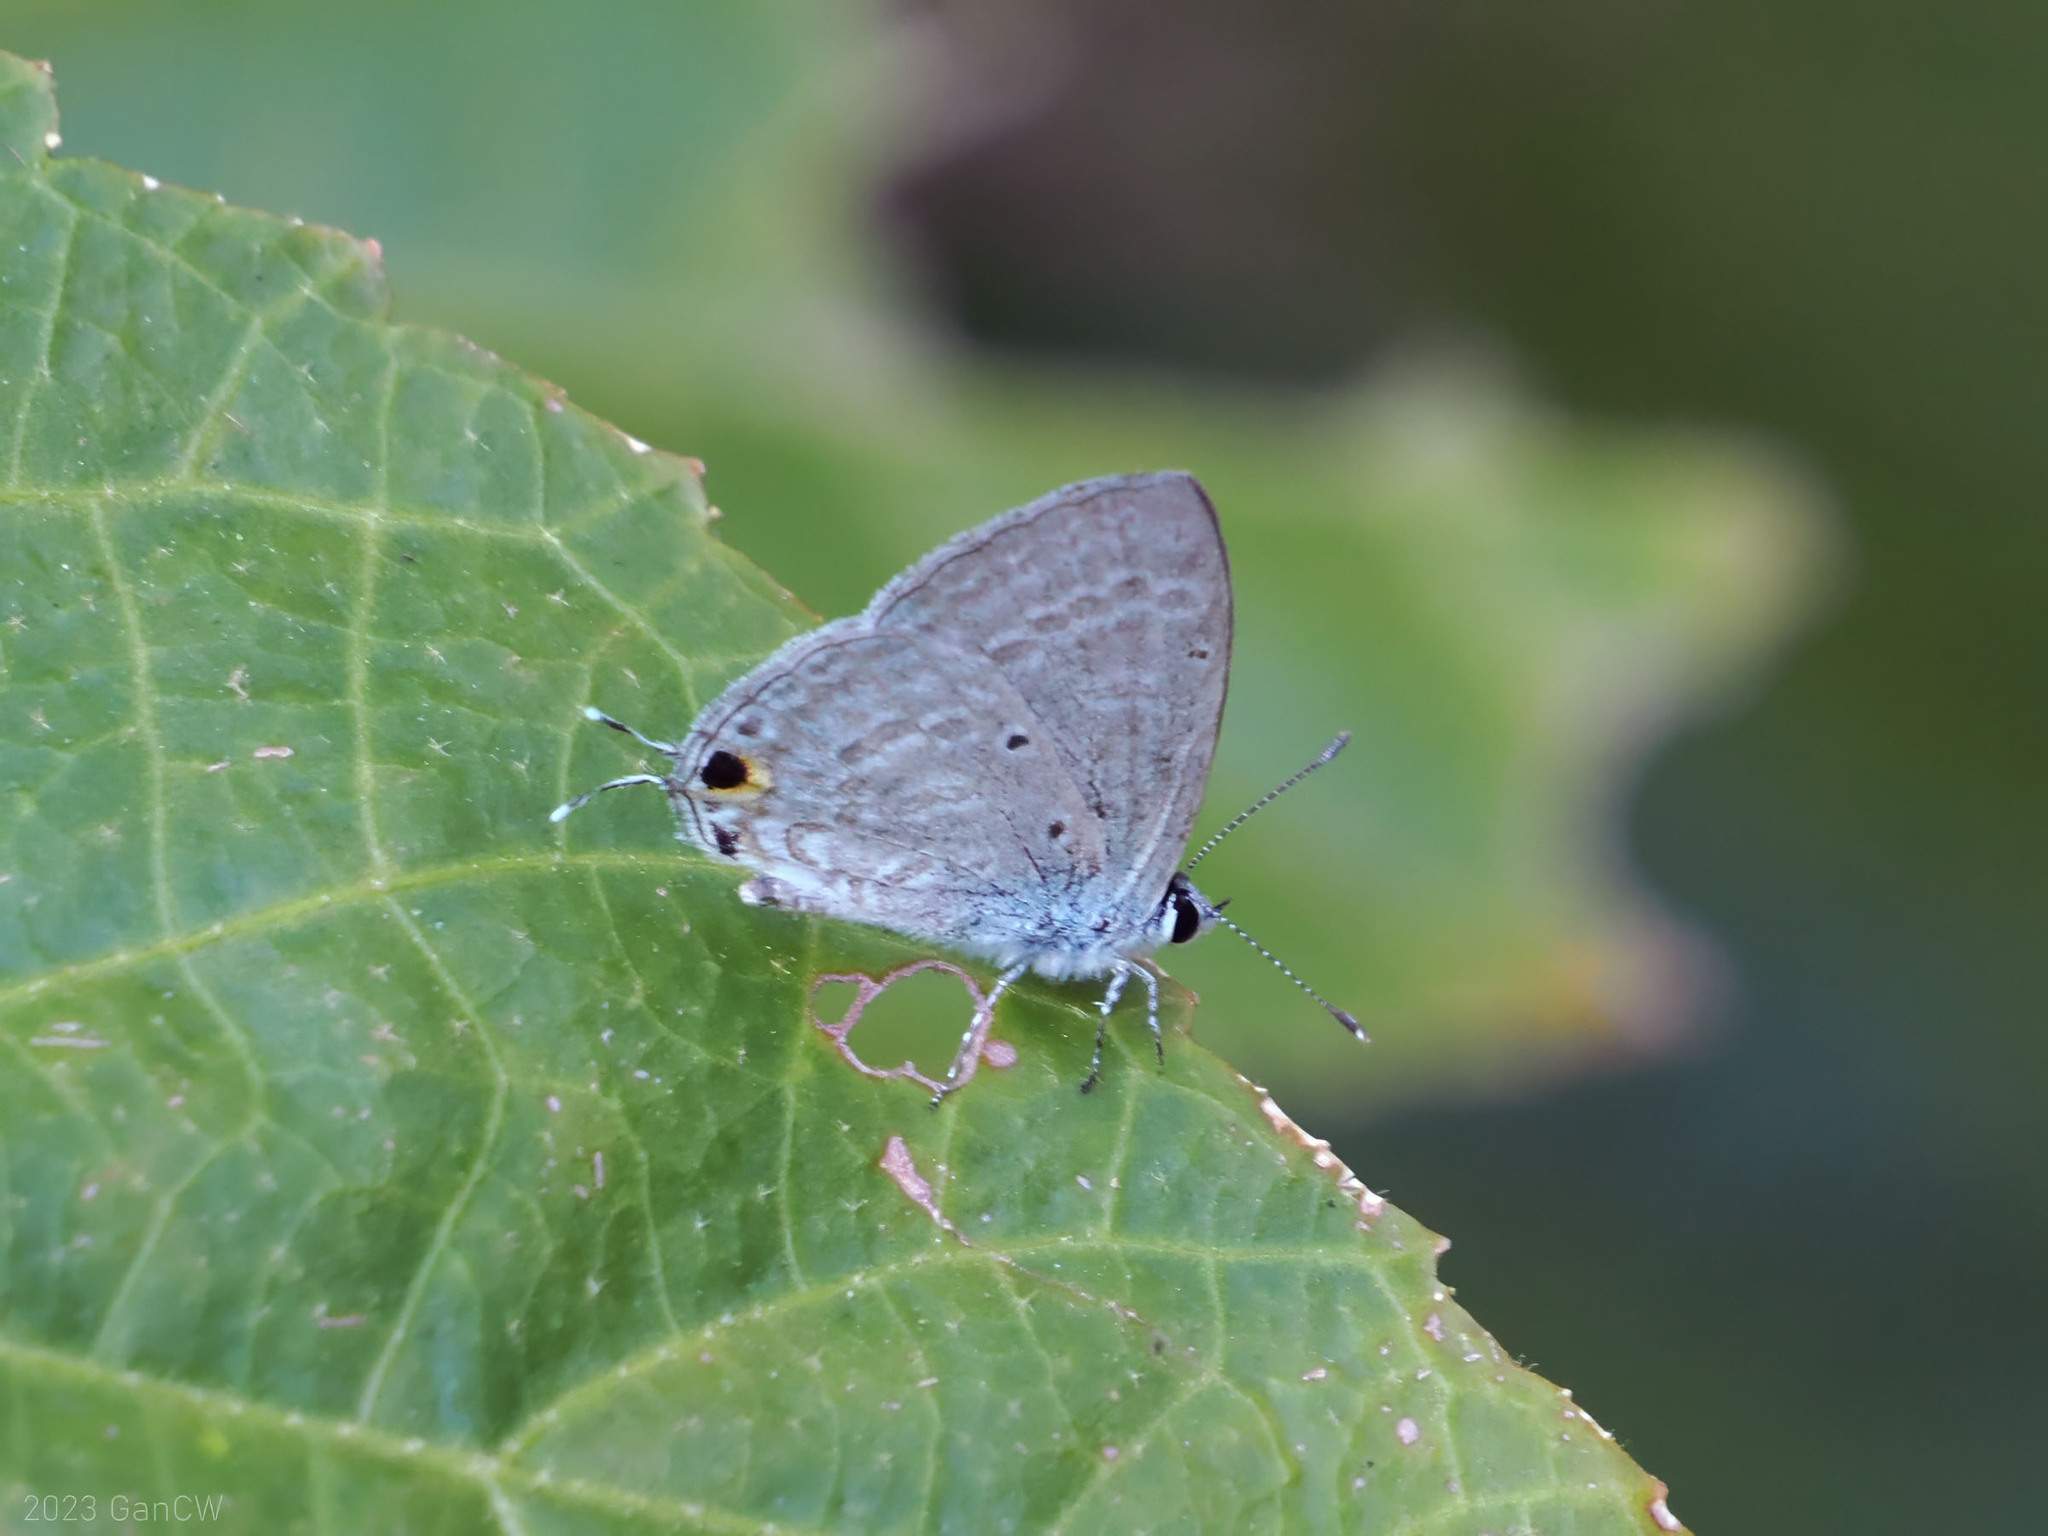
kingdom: Animalia
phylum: Arthropoda
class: Insecta
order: Lepidoptera
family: Lycaenidae
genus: Catochrysops
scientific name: Catochrysops strabo
